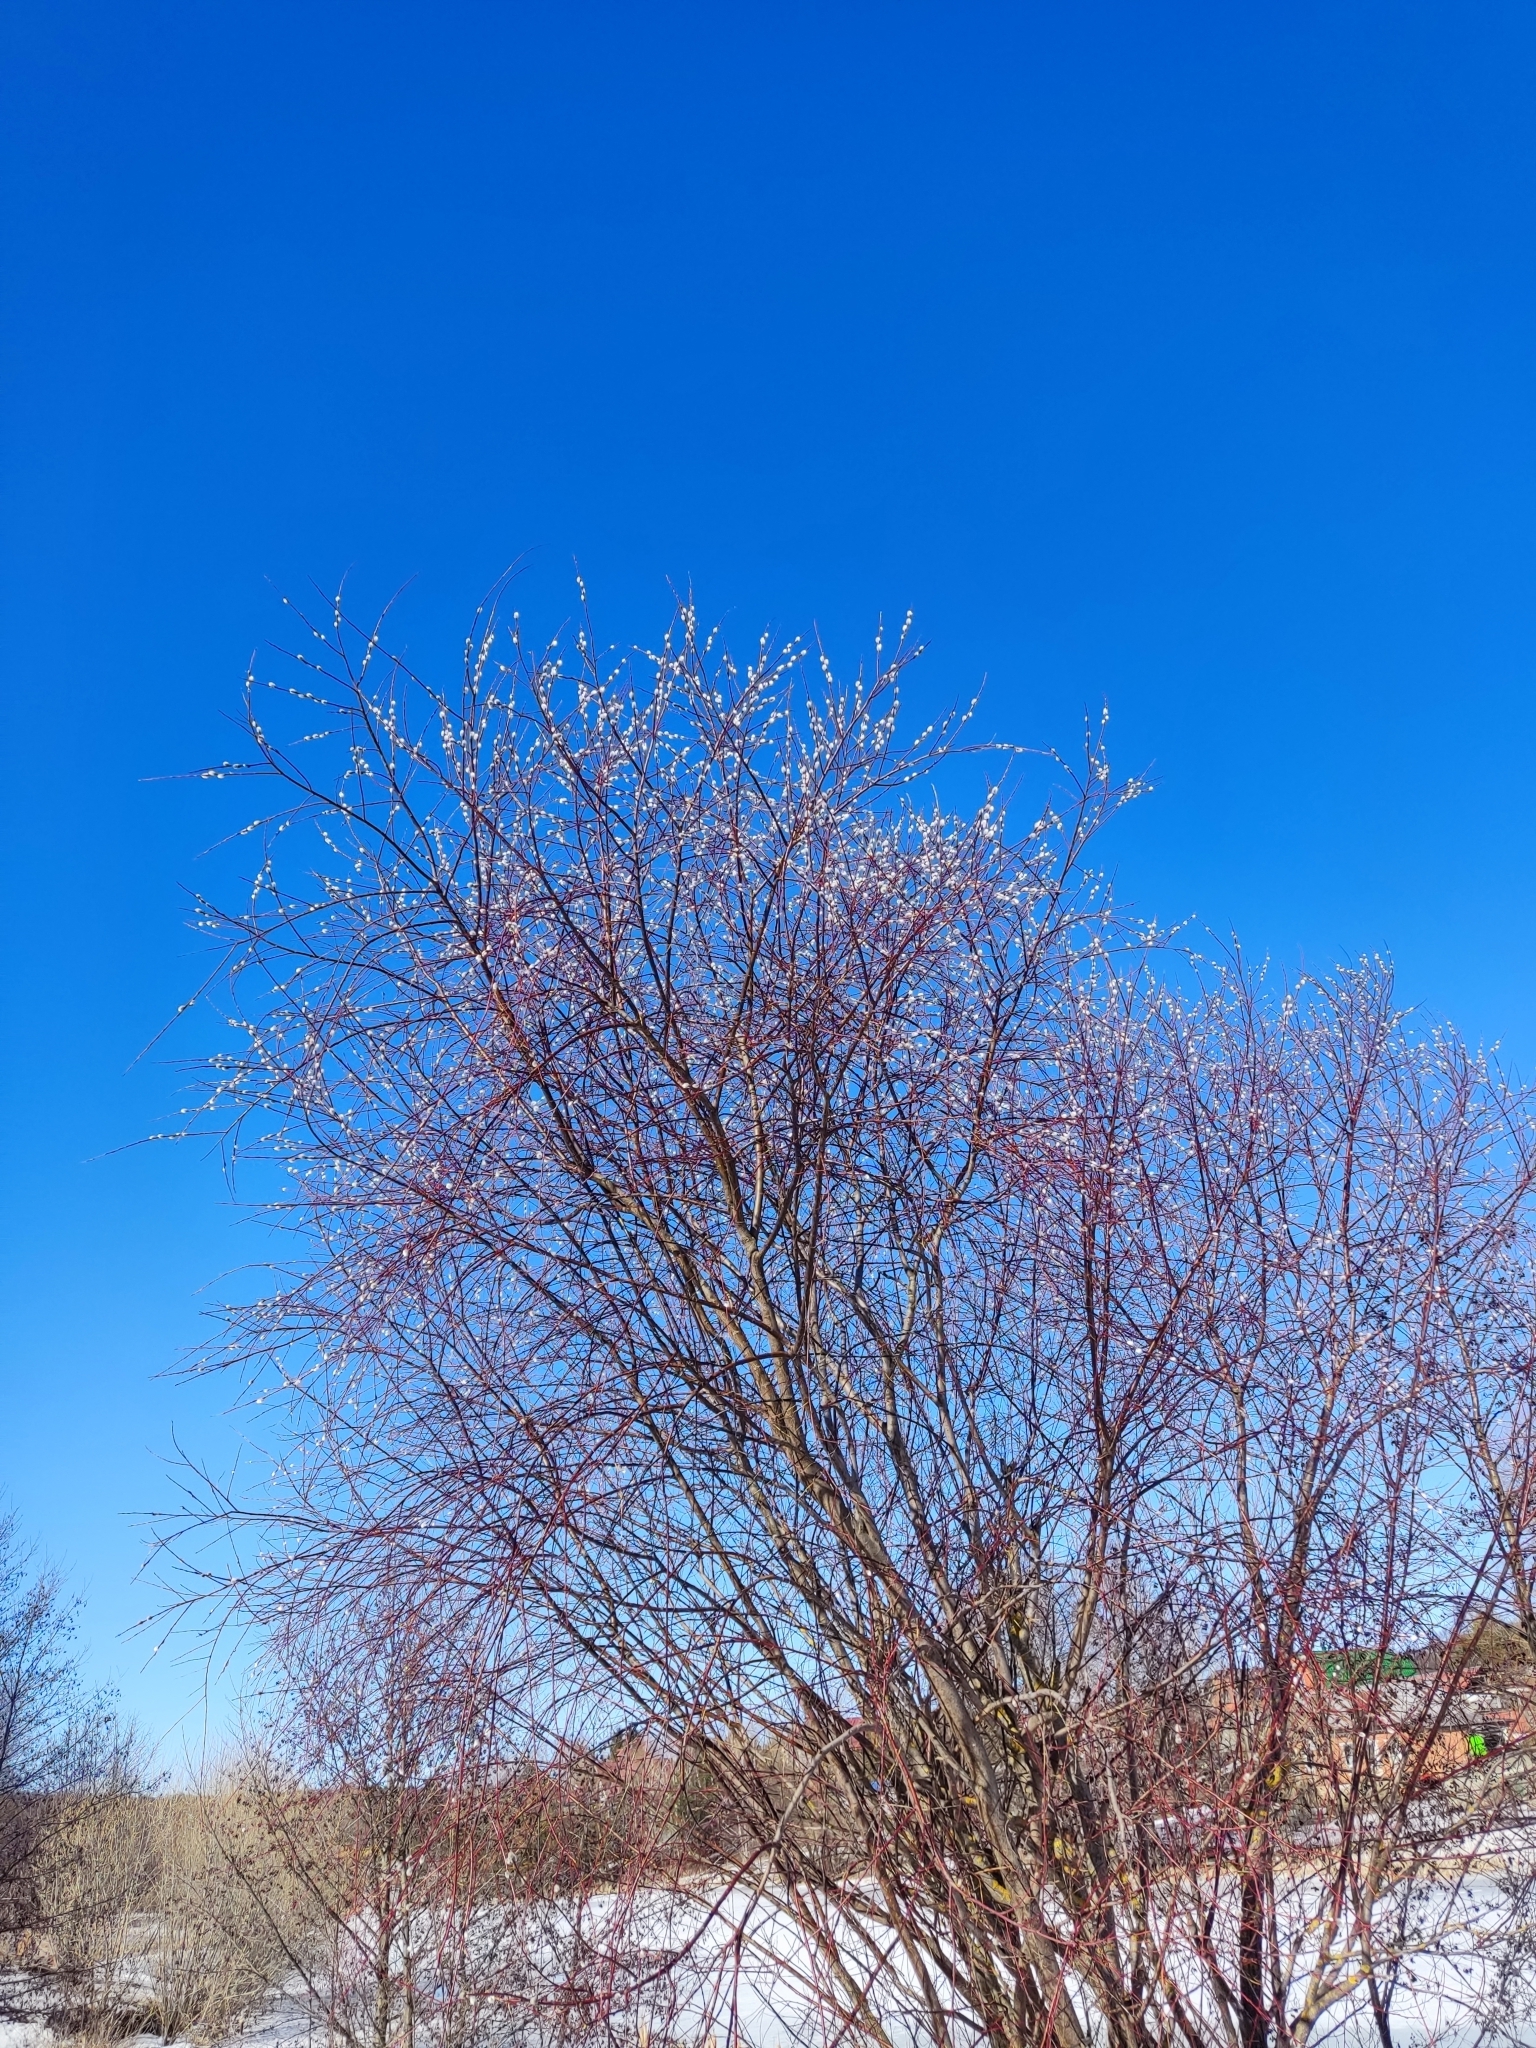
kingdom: Plantae
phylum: Tracheophyta
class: Magnoliopsida
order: Malpighiales
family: Salicaceae
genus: Salix
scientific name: Salix acutifolia
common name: Siberian violet-willow
